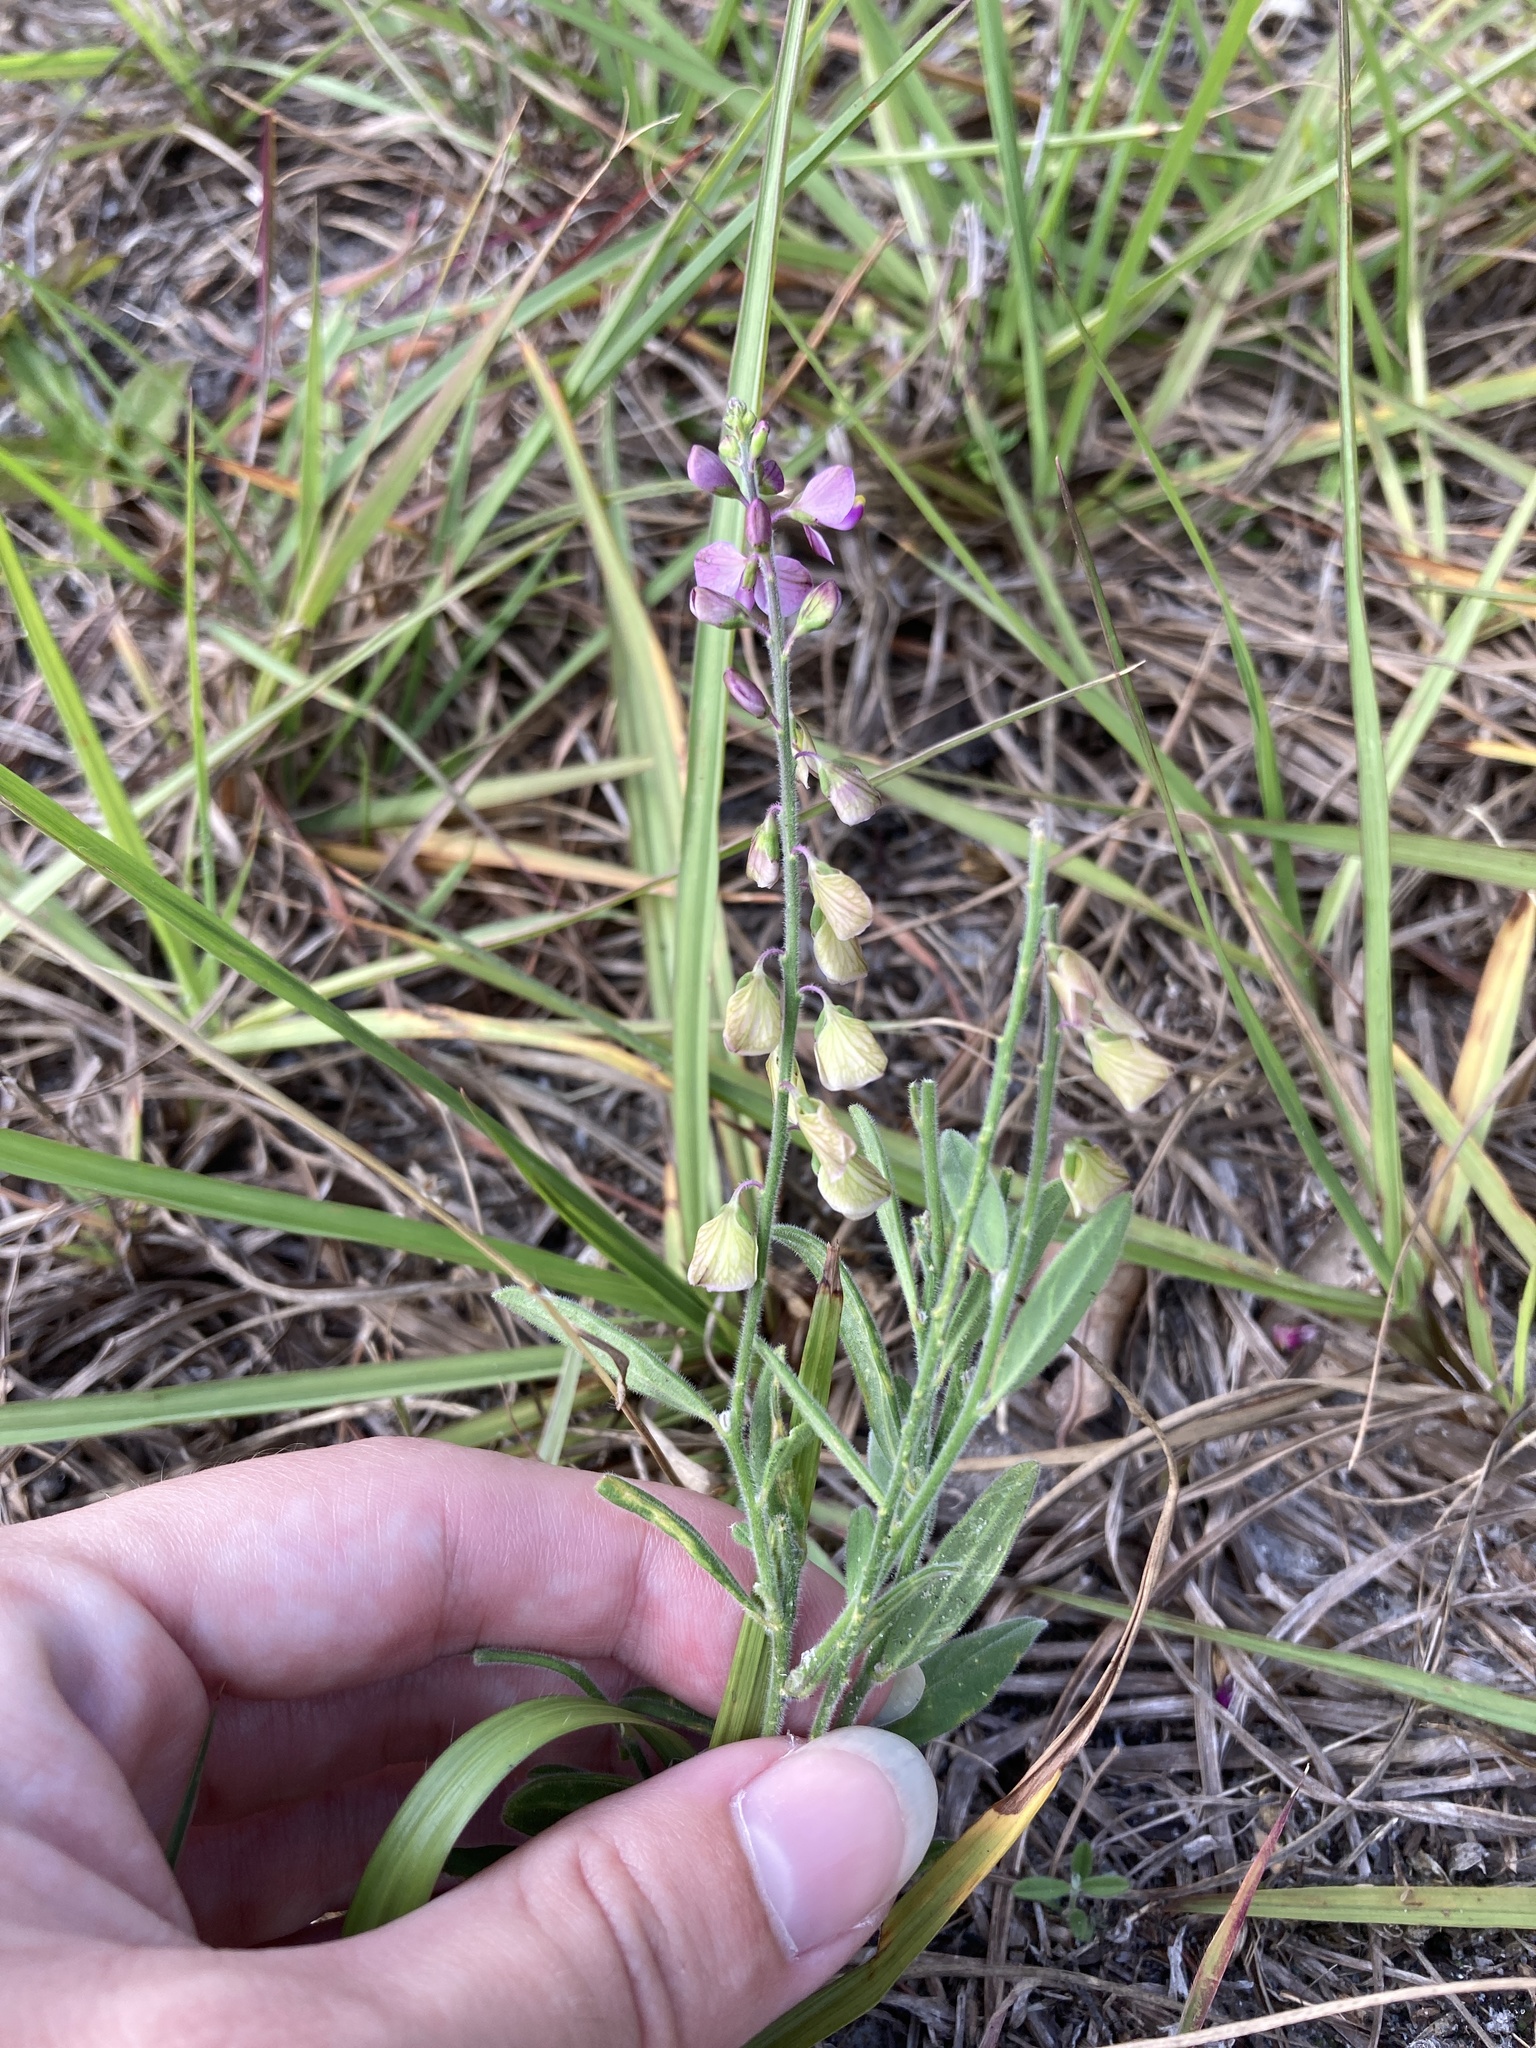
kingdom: Plantae
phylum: Tracheophyta
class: Magnoliopsida
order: Fabales
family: Polygalaceae
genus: Asemeia
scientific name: Asemeia grandiflora
